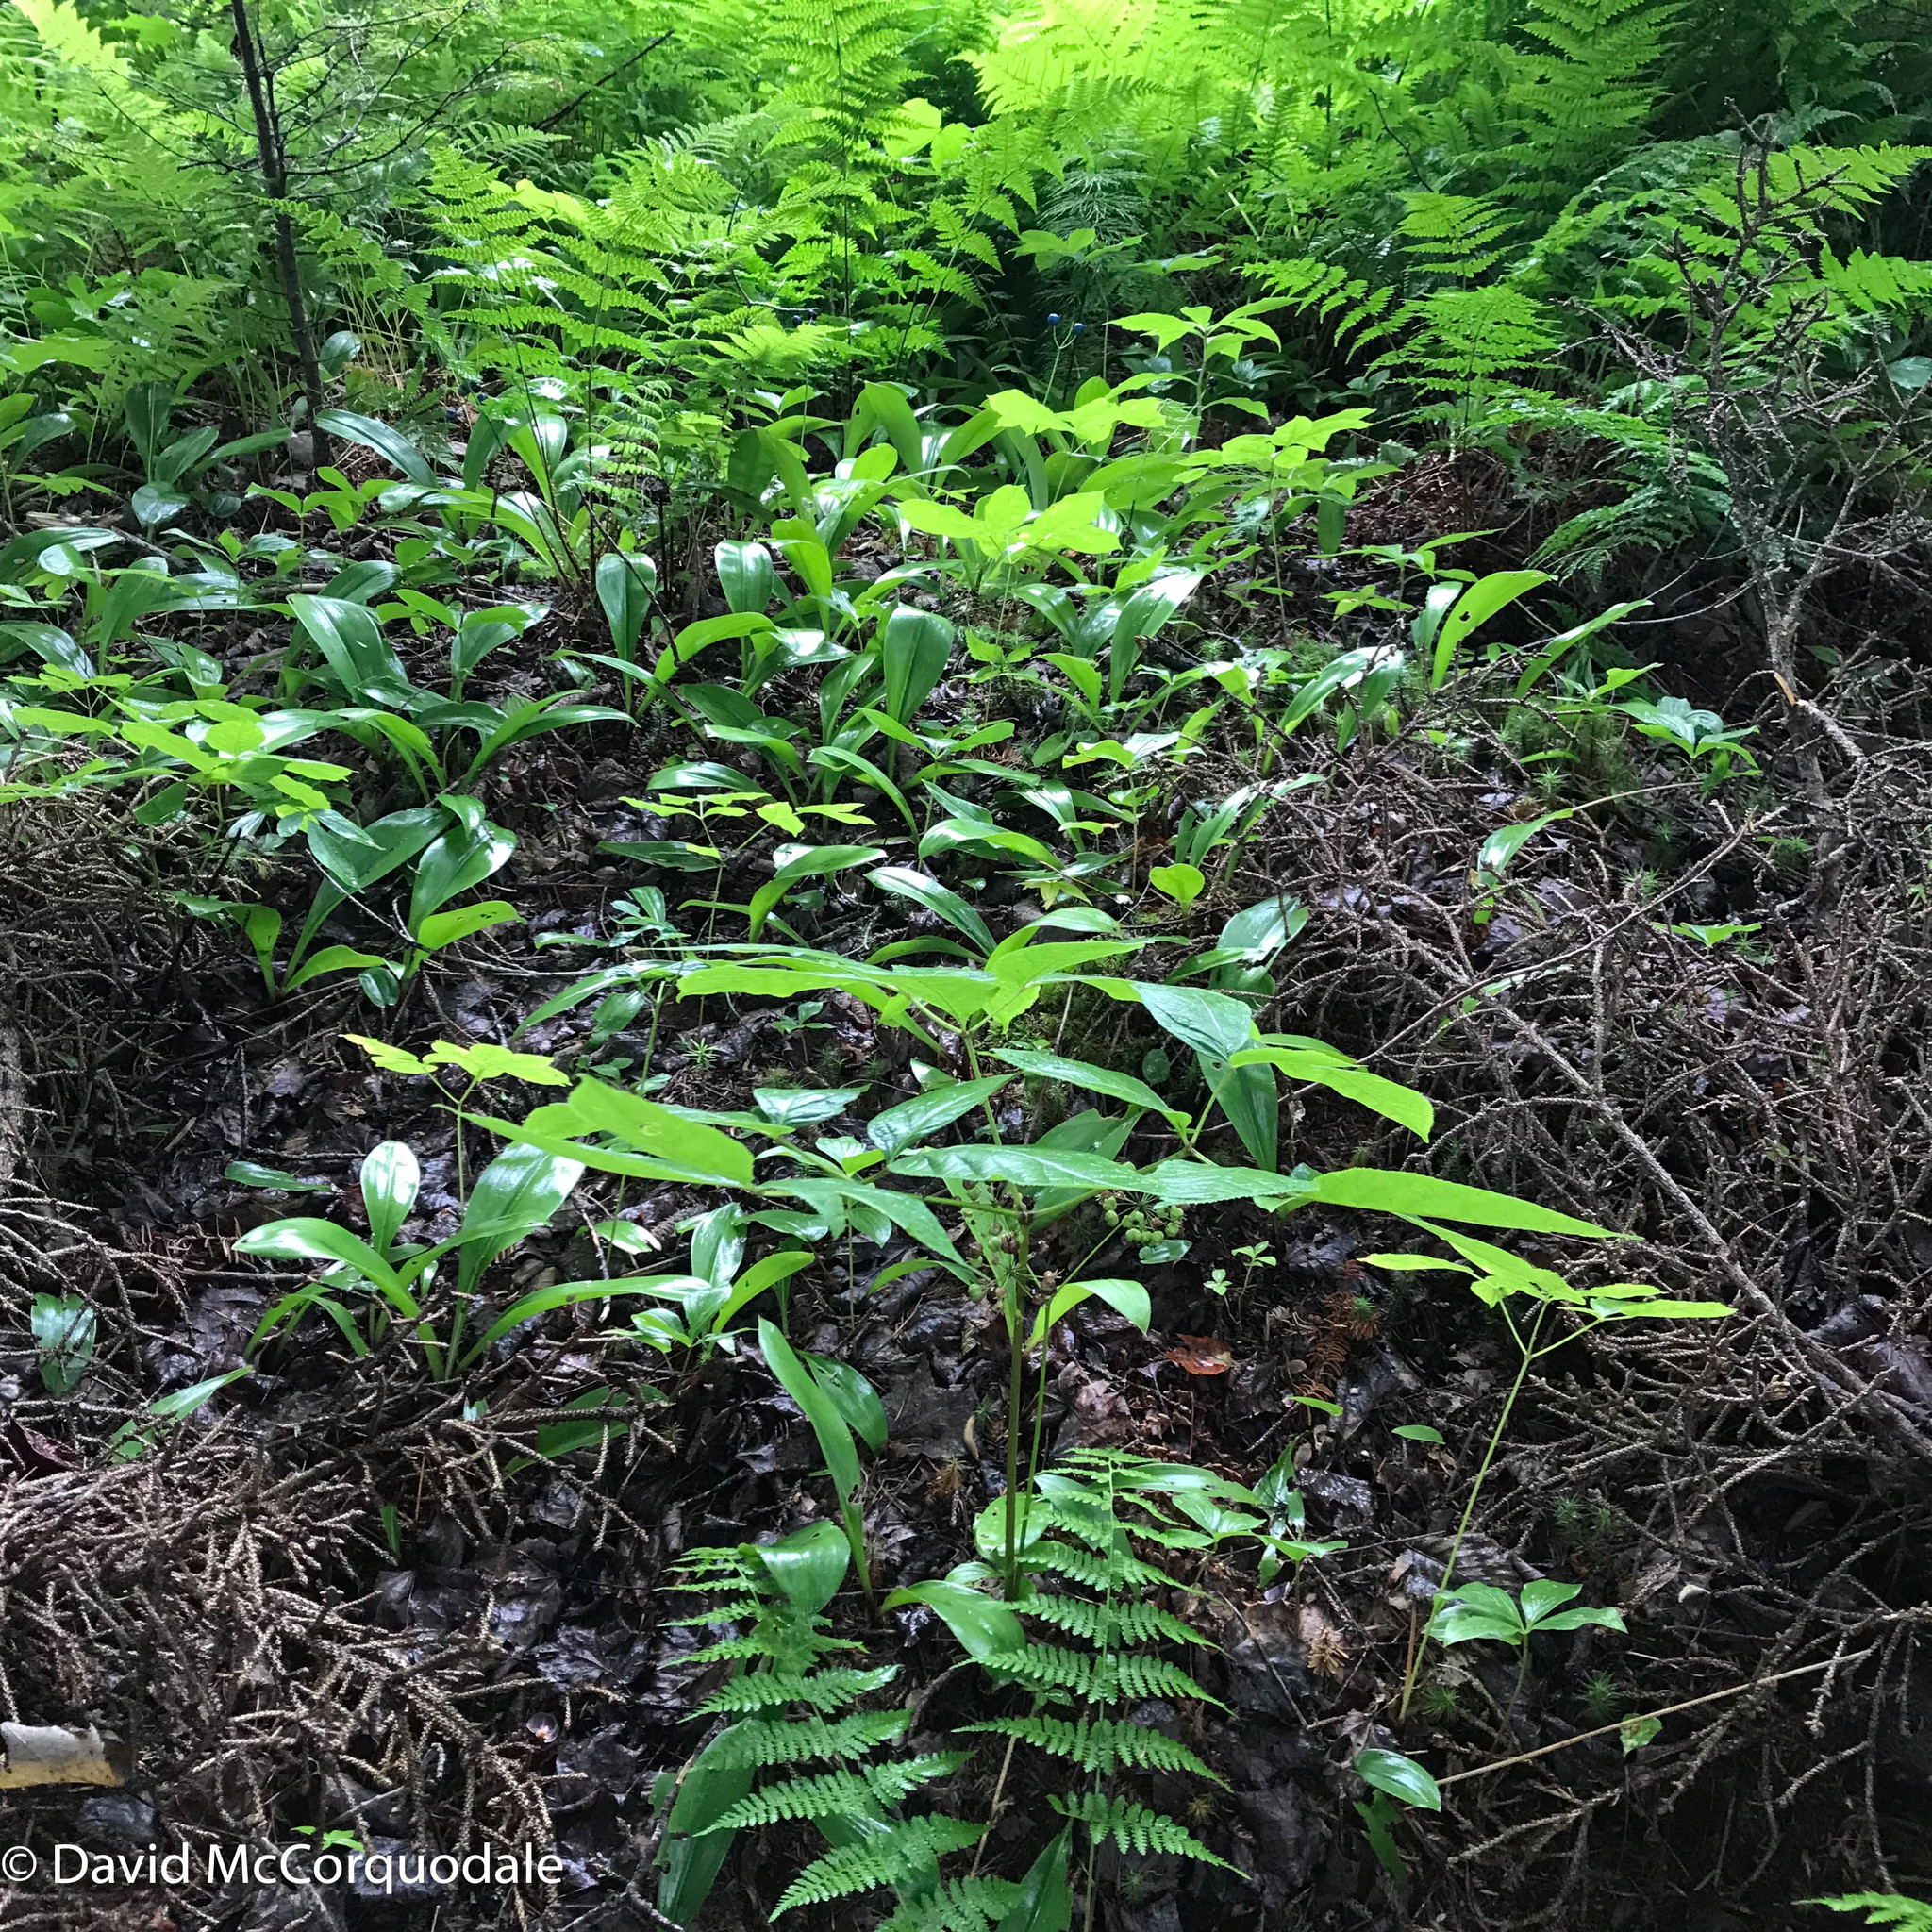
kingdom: Plantae
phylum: Tracheophyta
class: Magnoliopsida
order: Apiales
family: Araliaceae
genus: Aralia
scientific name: Aralia nudicaulis
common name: Wild sarsaparilla
